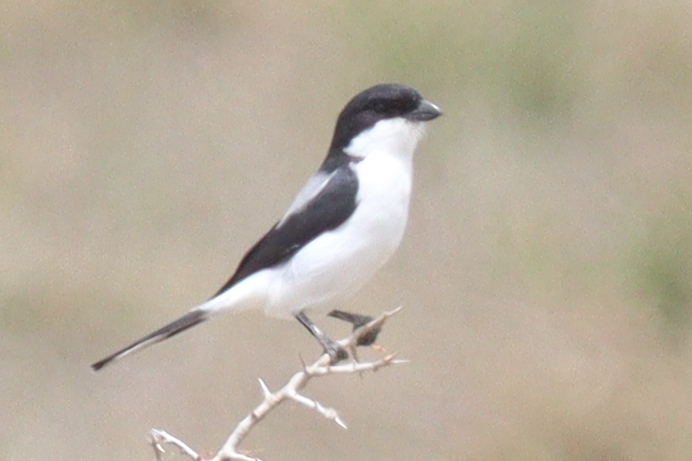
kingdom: Animalia
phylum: Chordata
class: Aves
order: Passeriformes
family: Laniidae
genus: Lanius
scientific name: Lanius dorsalis
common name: Taita fiscal
